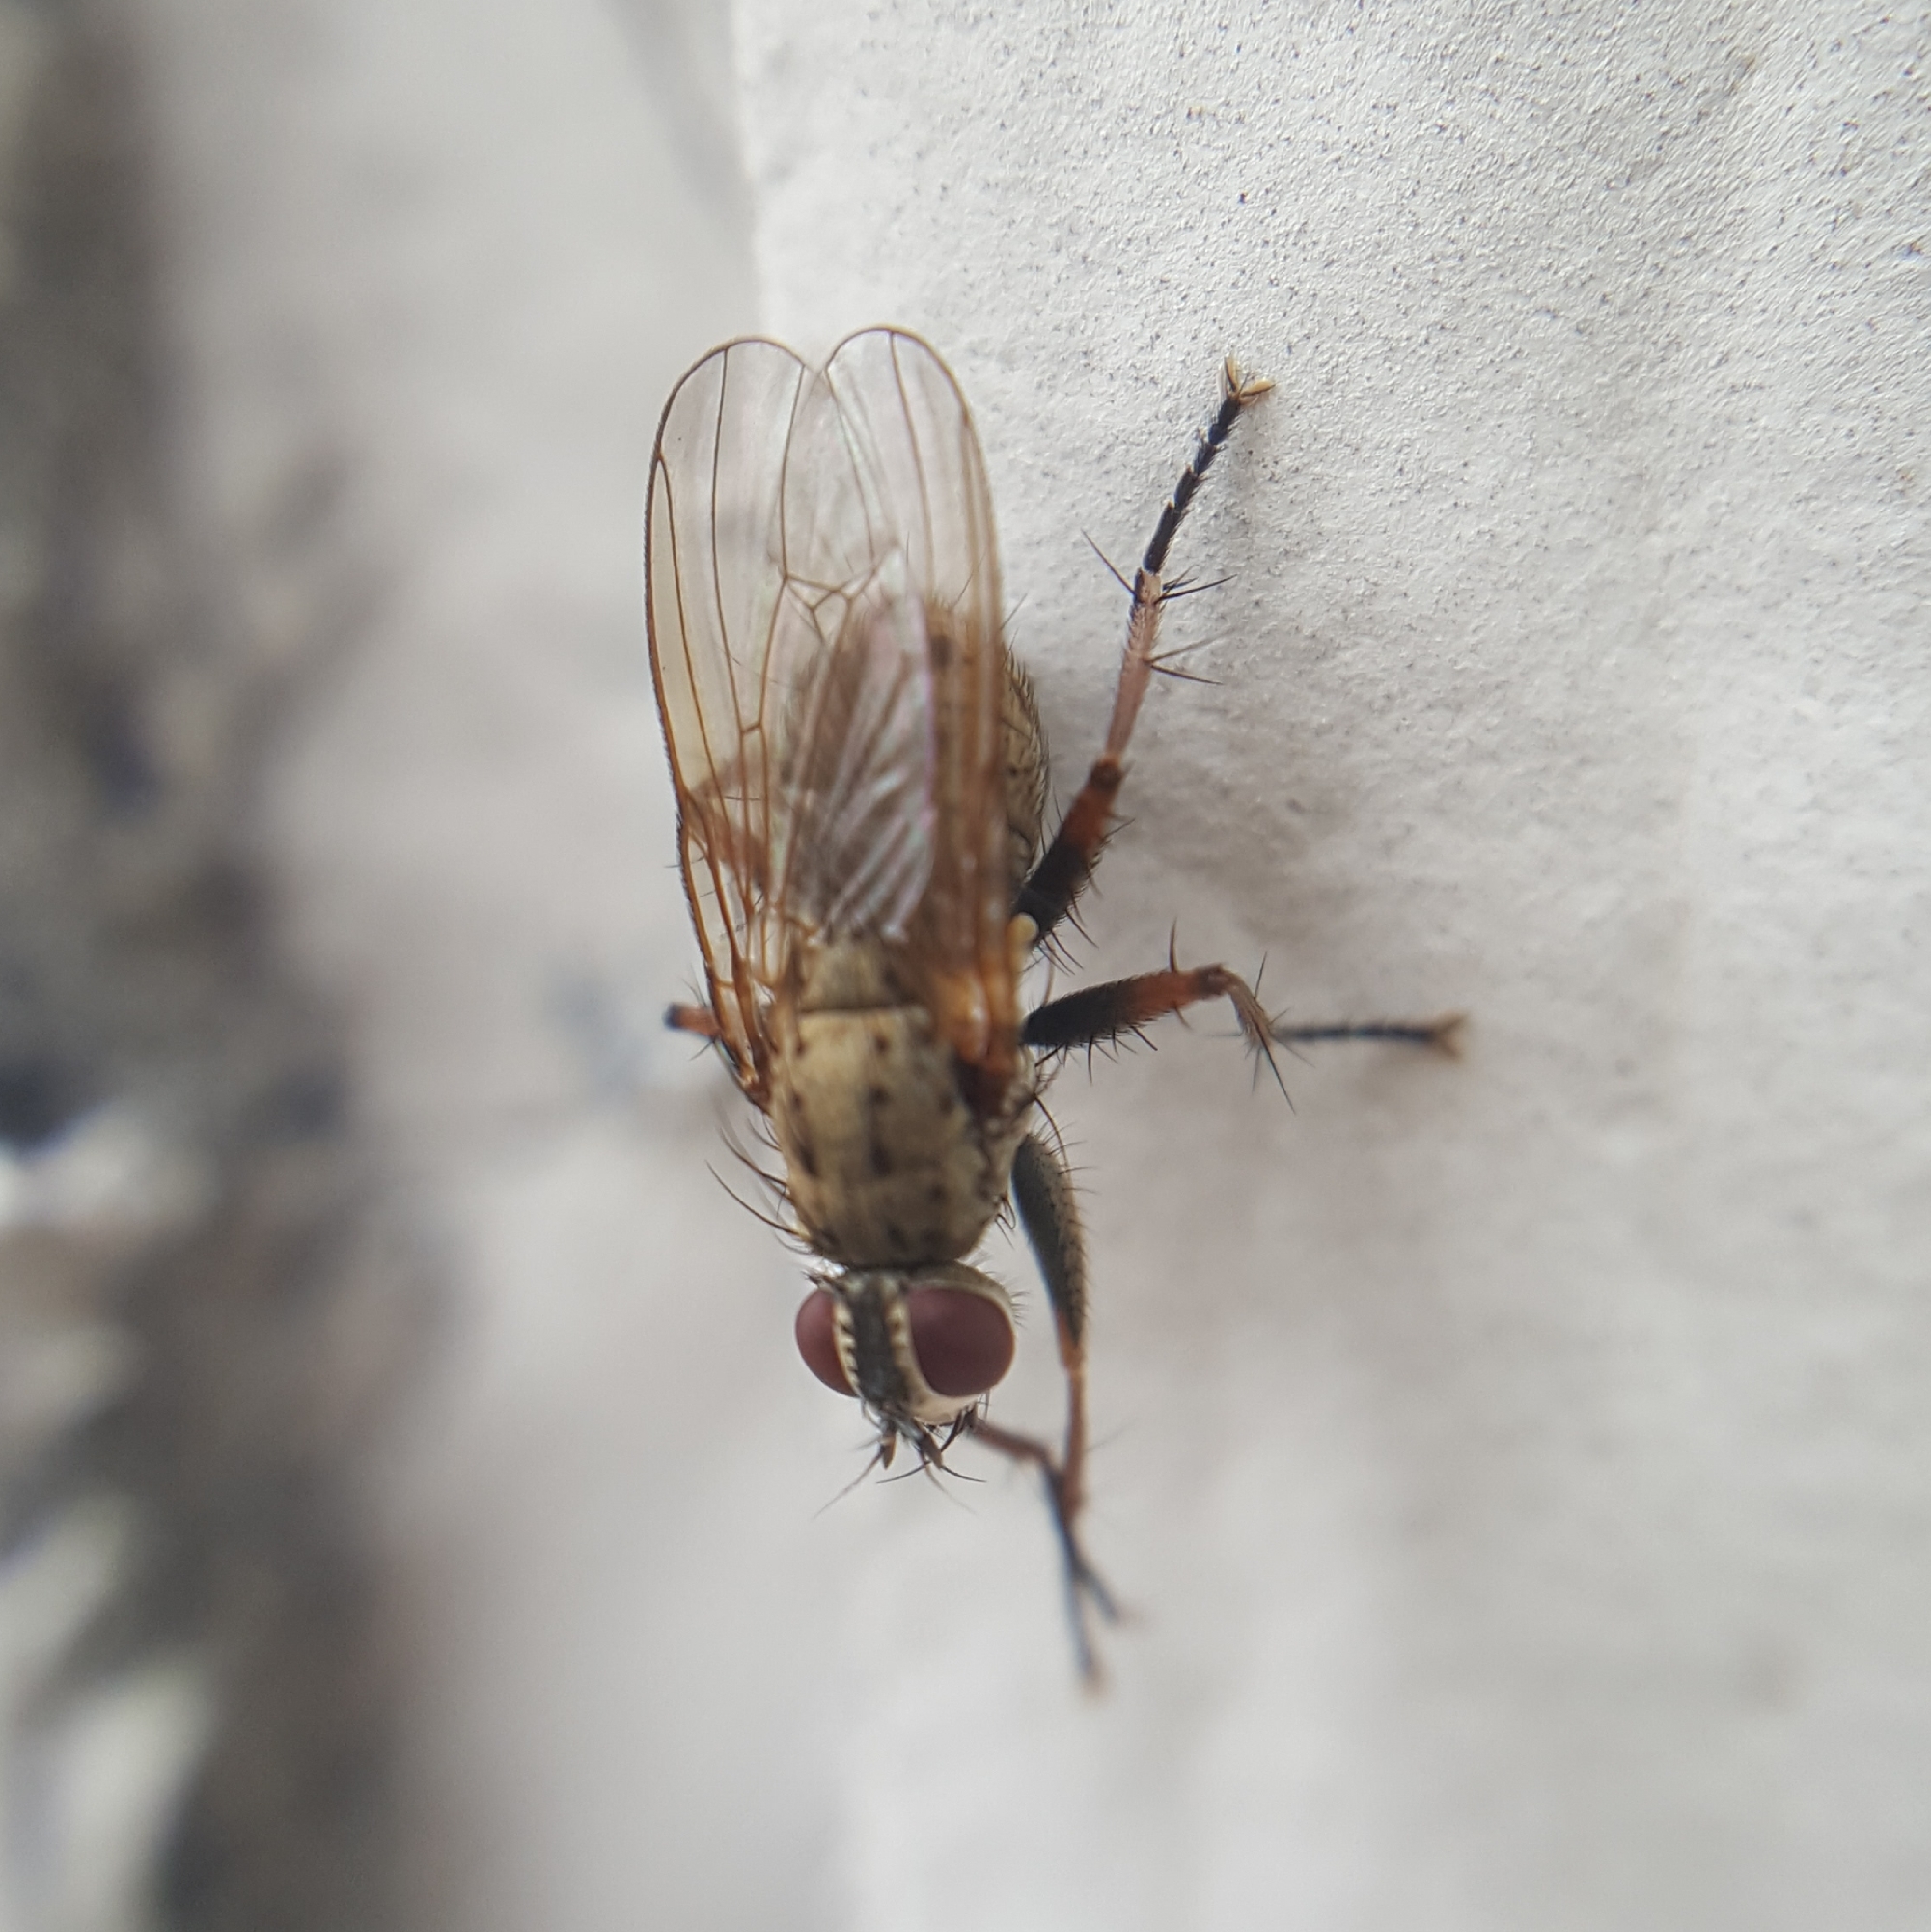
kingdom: Animalia
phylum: Arthropoda
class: Insecta
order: Diptera
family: Muscidae
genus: Coenosia
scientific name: Coenosia tigrina
